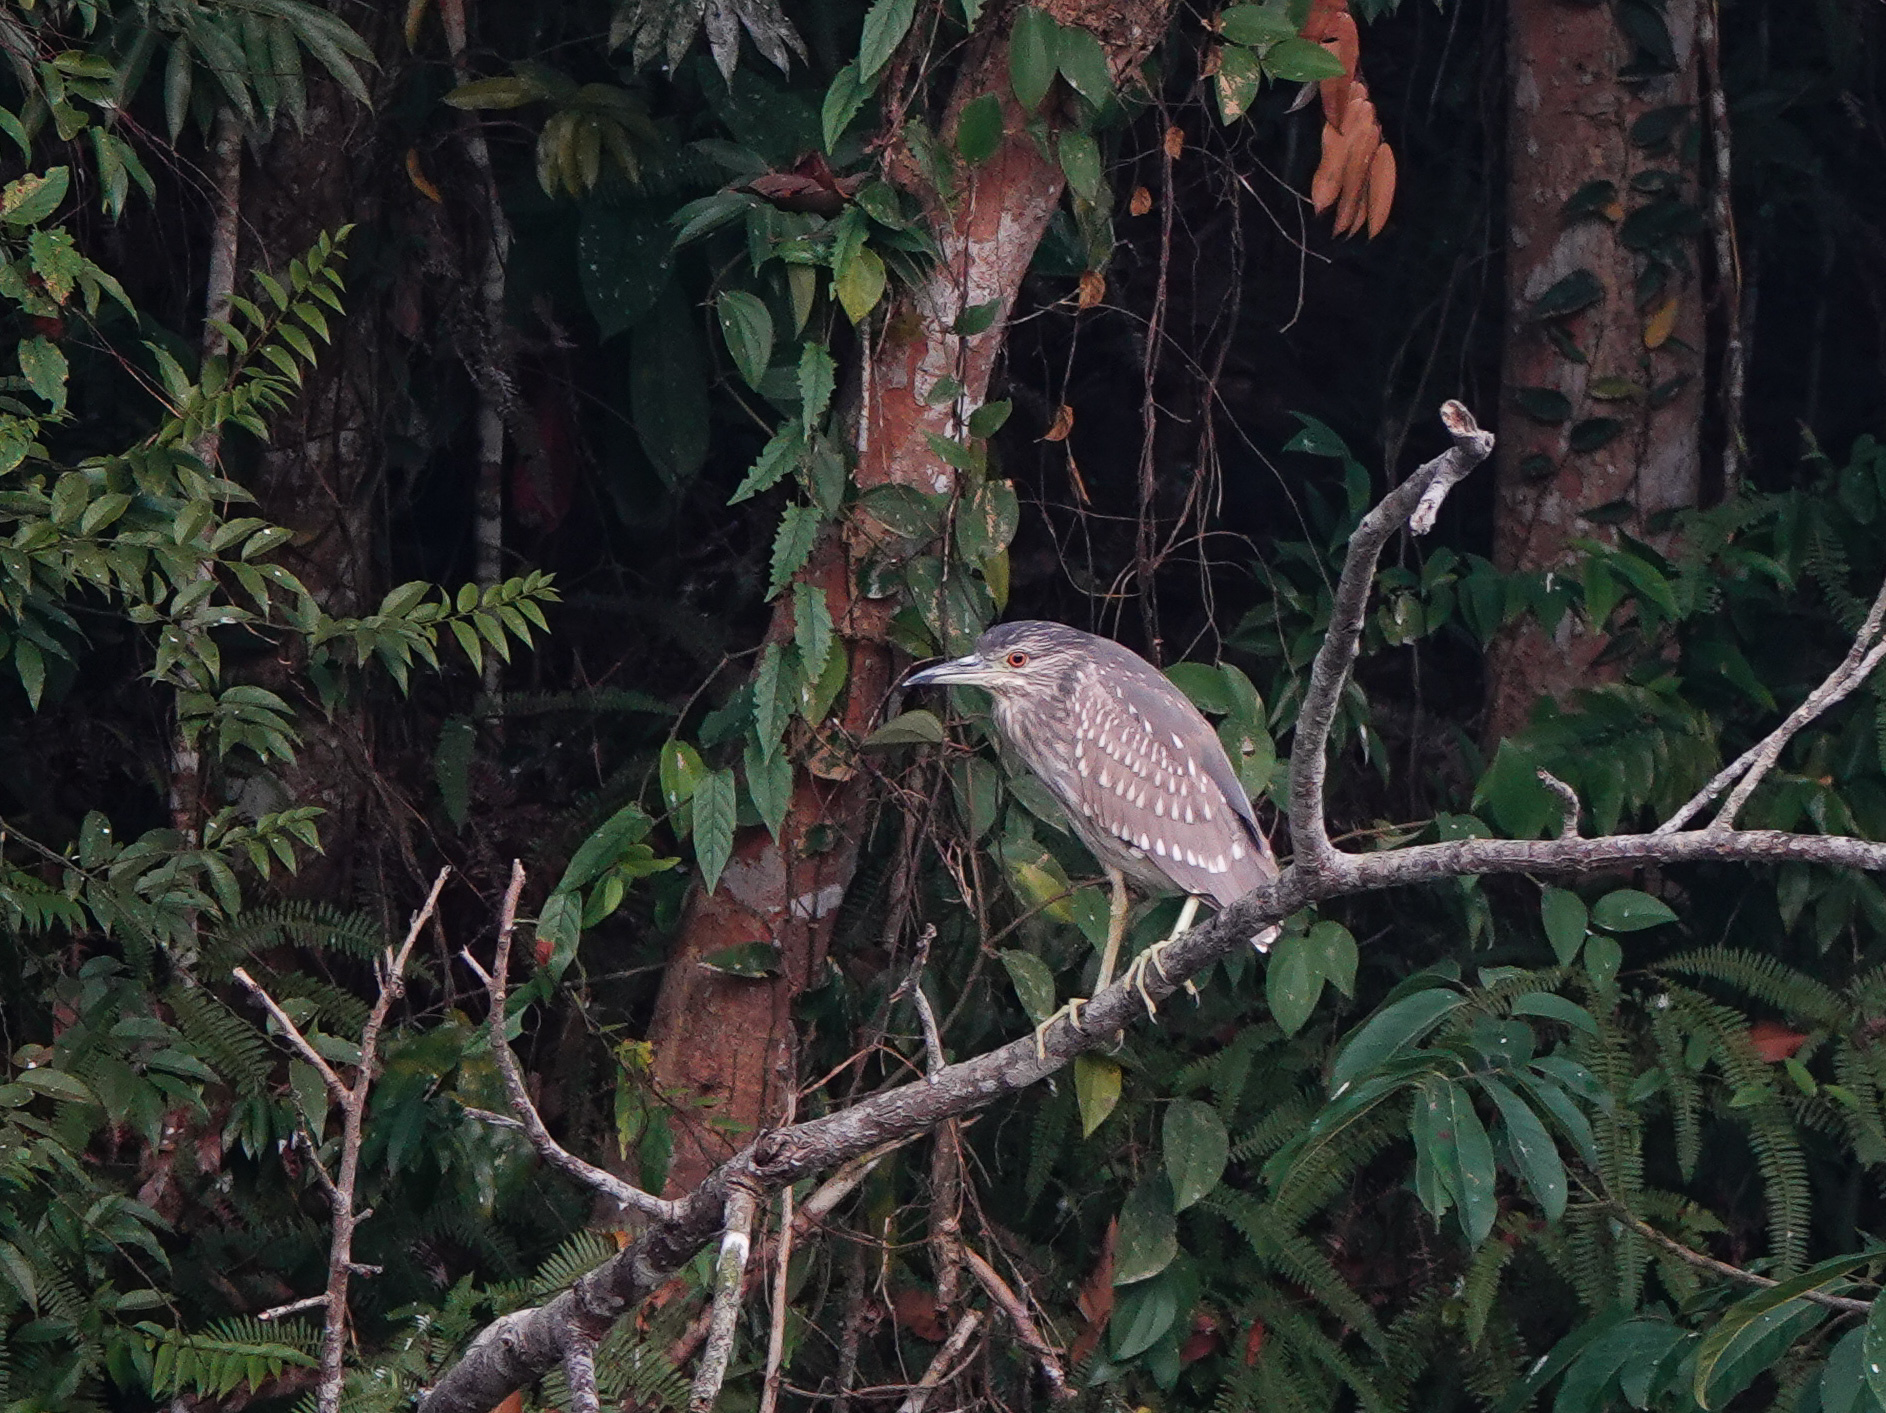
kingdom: Animalia
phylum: Chordata
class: Aves
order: Pelecaniformes
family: Ardeidae
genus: Nycticorax
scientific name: Nycticorax nycticorax
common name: Black-crowned night heron
